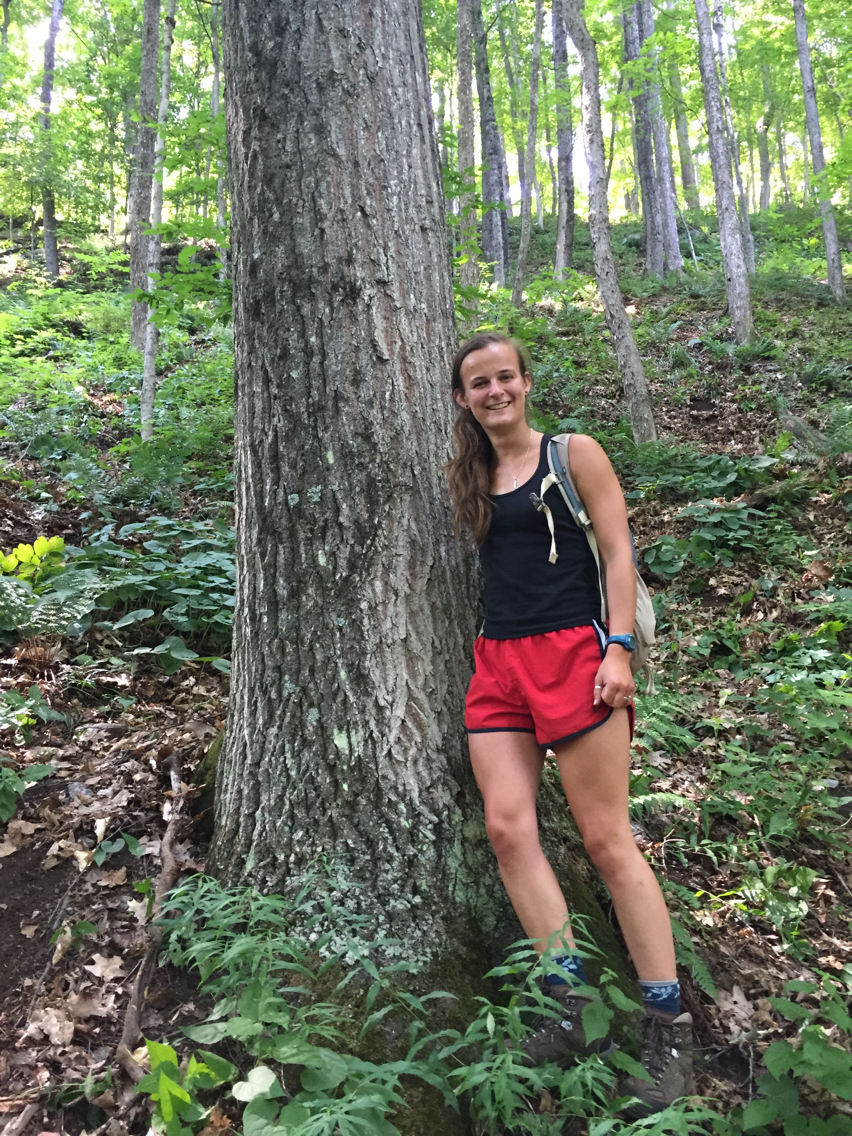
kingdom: Plantae
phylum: Tracheophyta
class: Magnoliopsida
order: Fagales
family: Fagaceae
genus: Quercus
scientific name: Quercus rubra
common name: Red oak
